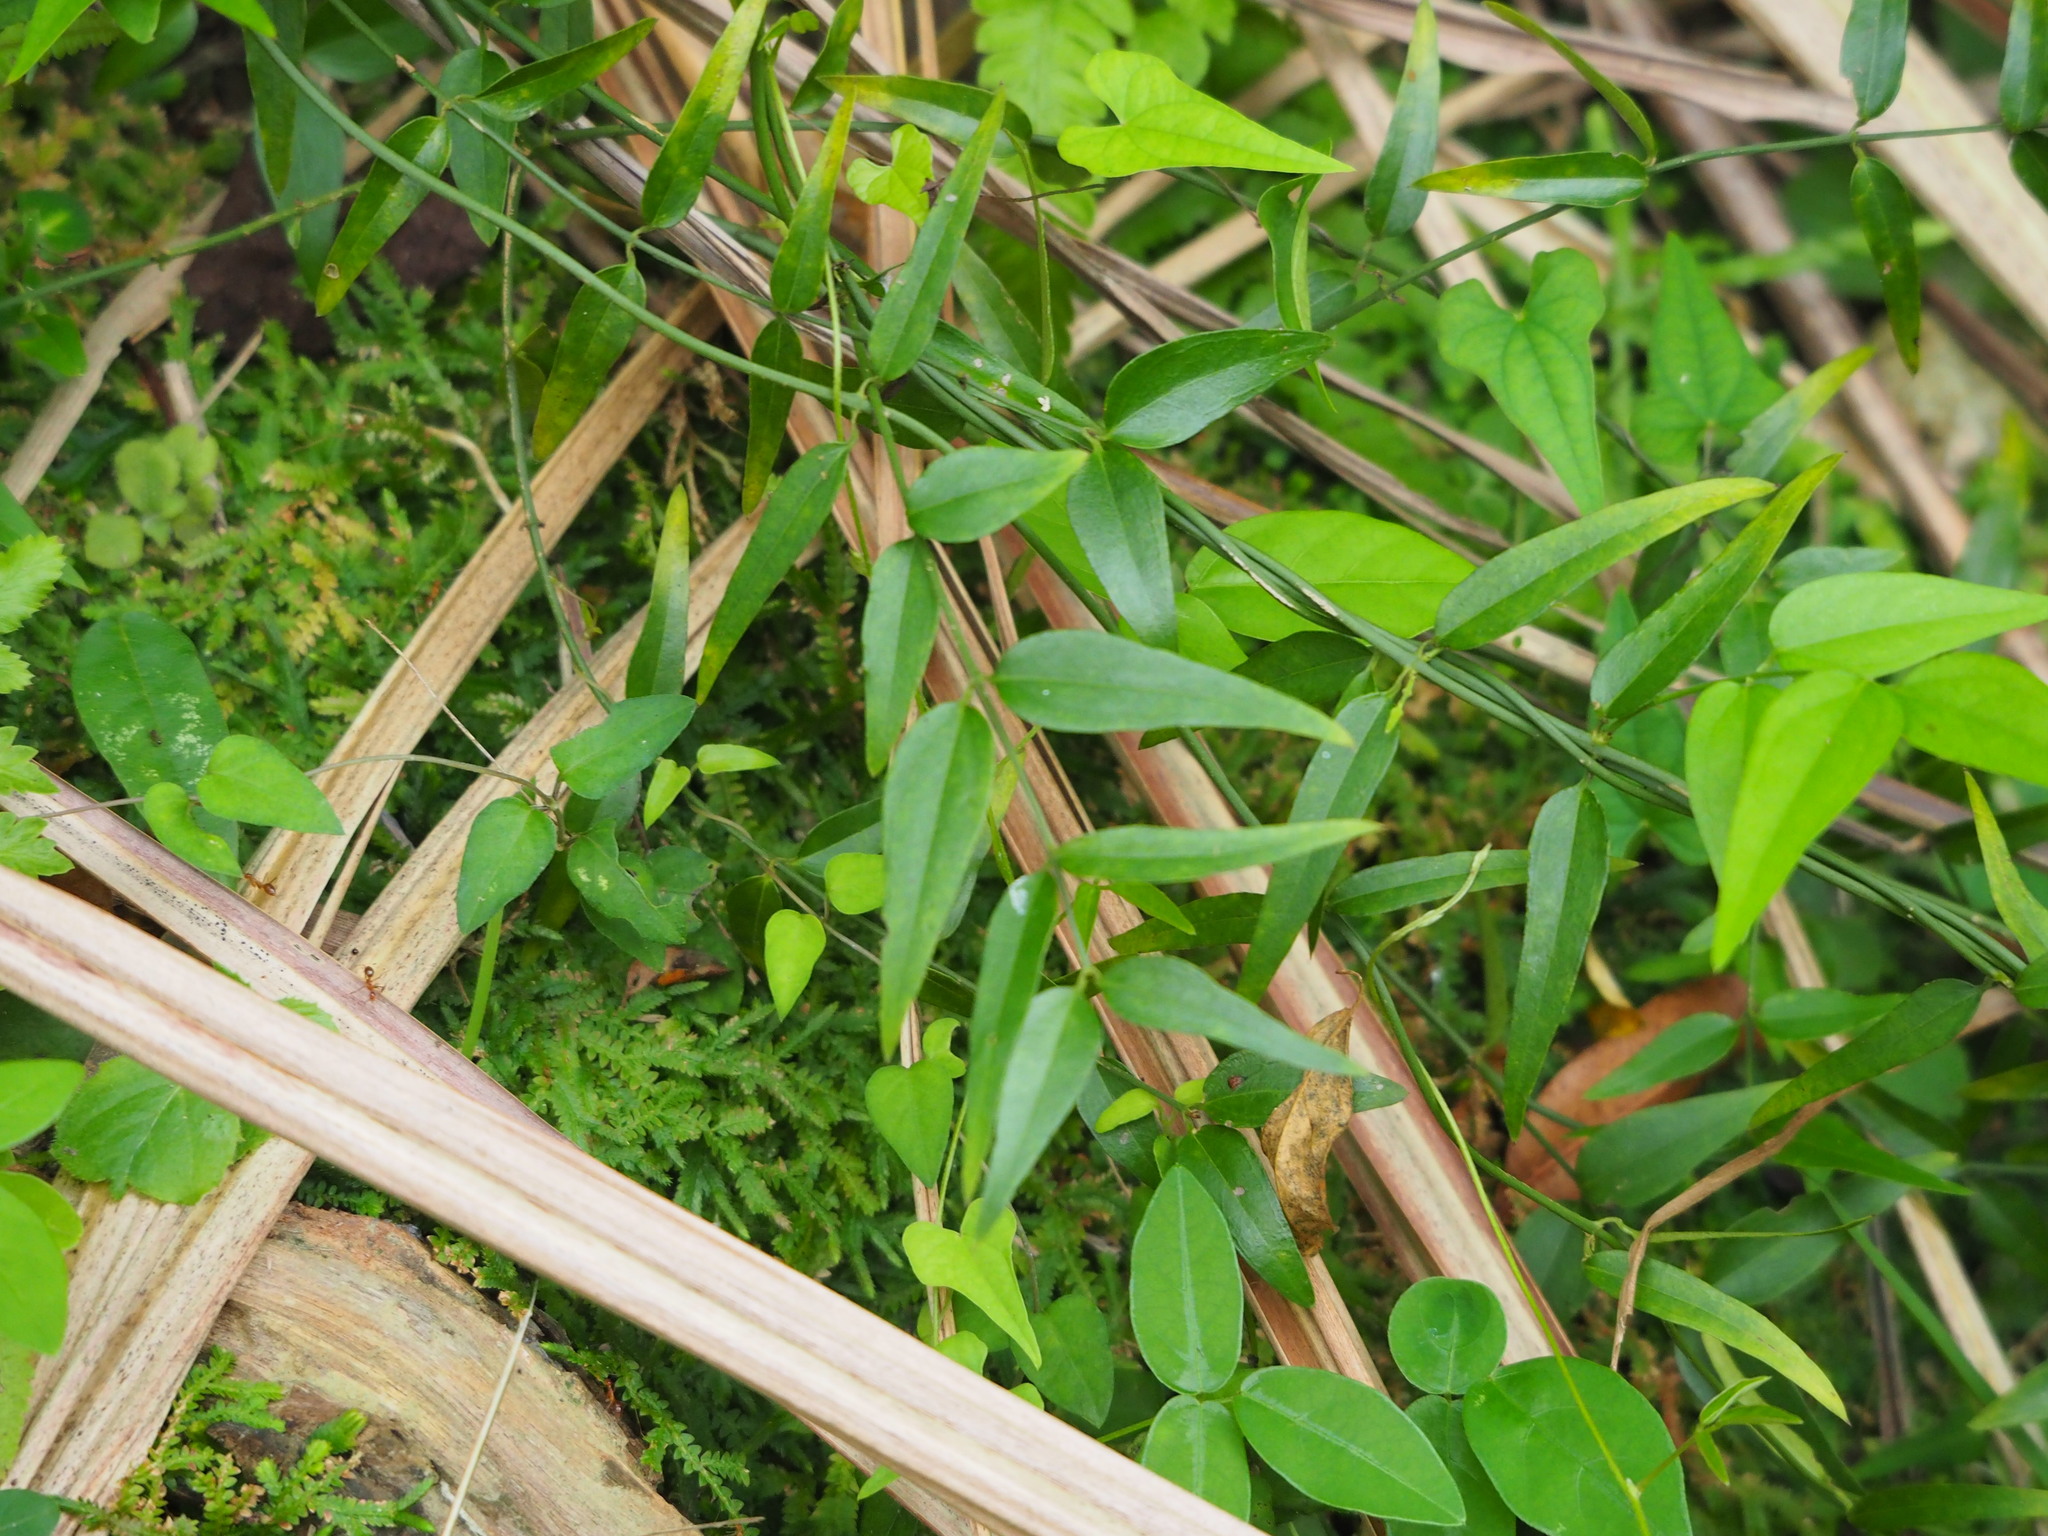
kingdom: Plantae
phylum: Tracheophyta
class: Magnoliopsida
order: Lamiales
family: Oleaceae
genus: Jasminum
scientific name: Jasminum nervosum
